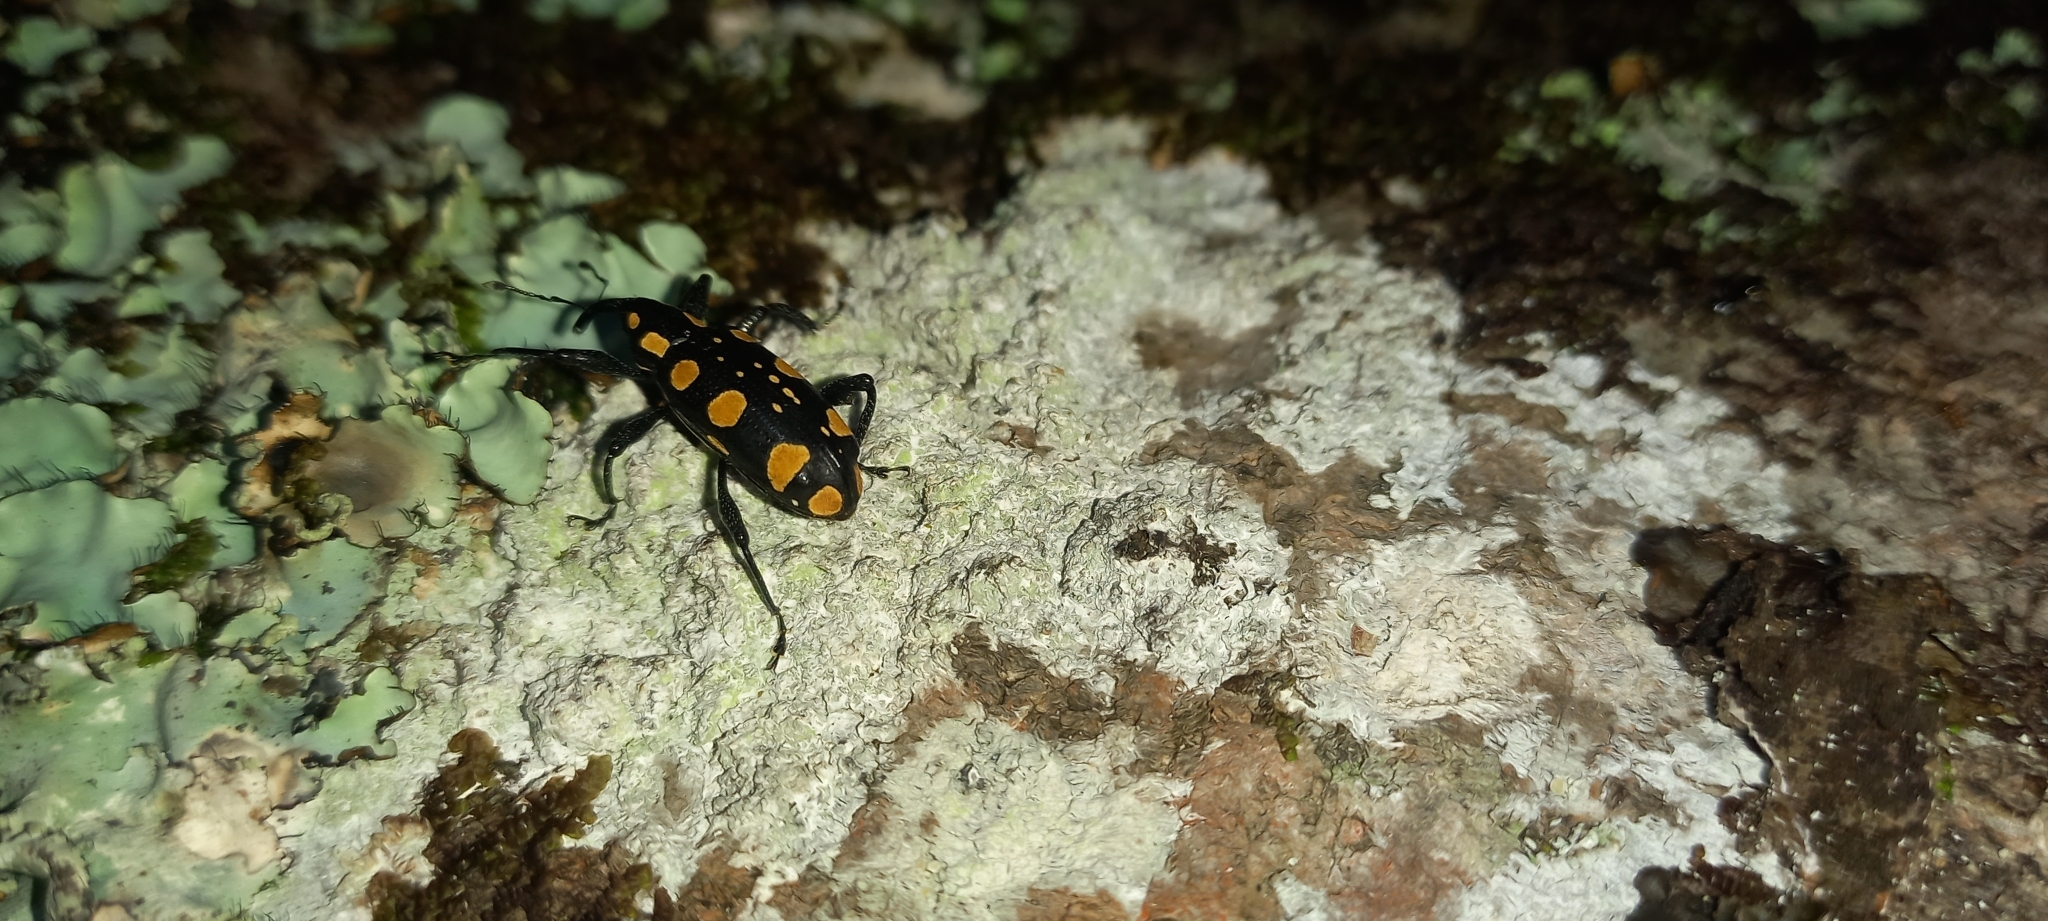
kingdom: Animalia
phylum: Arthropoda
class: Insecta
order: Coleoptera
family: Curculionidae
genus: Heilipus
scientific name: Heilipus falsus
